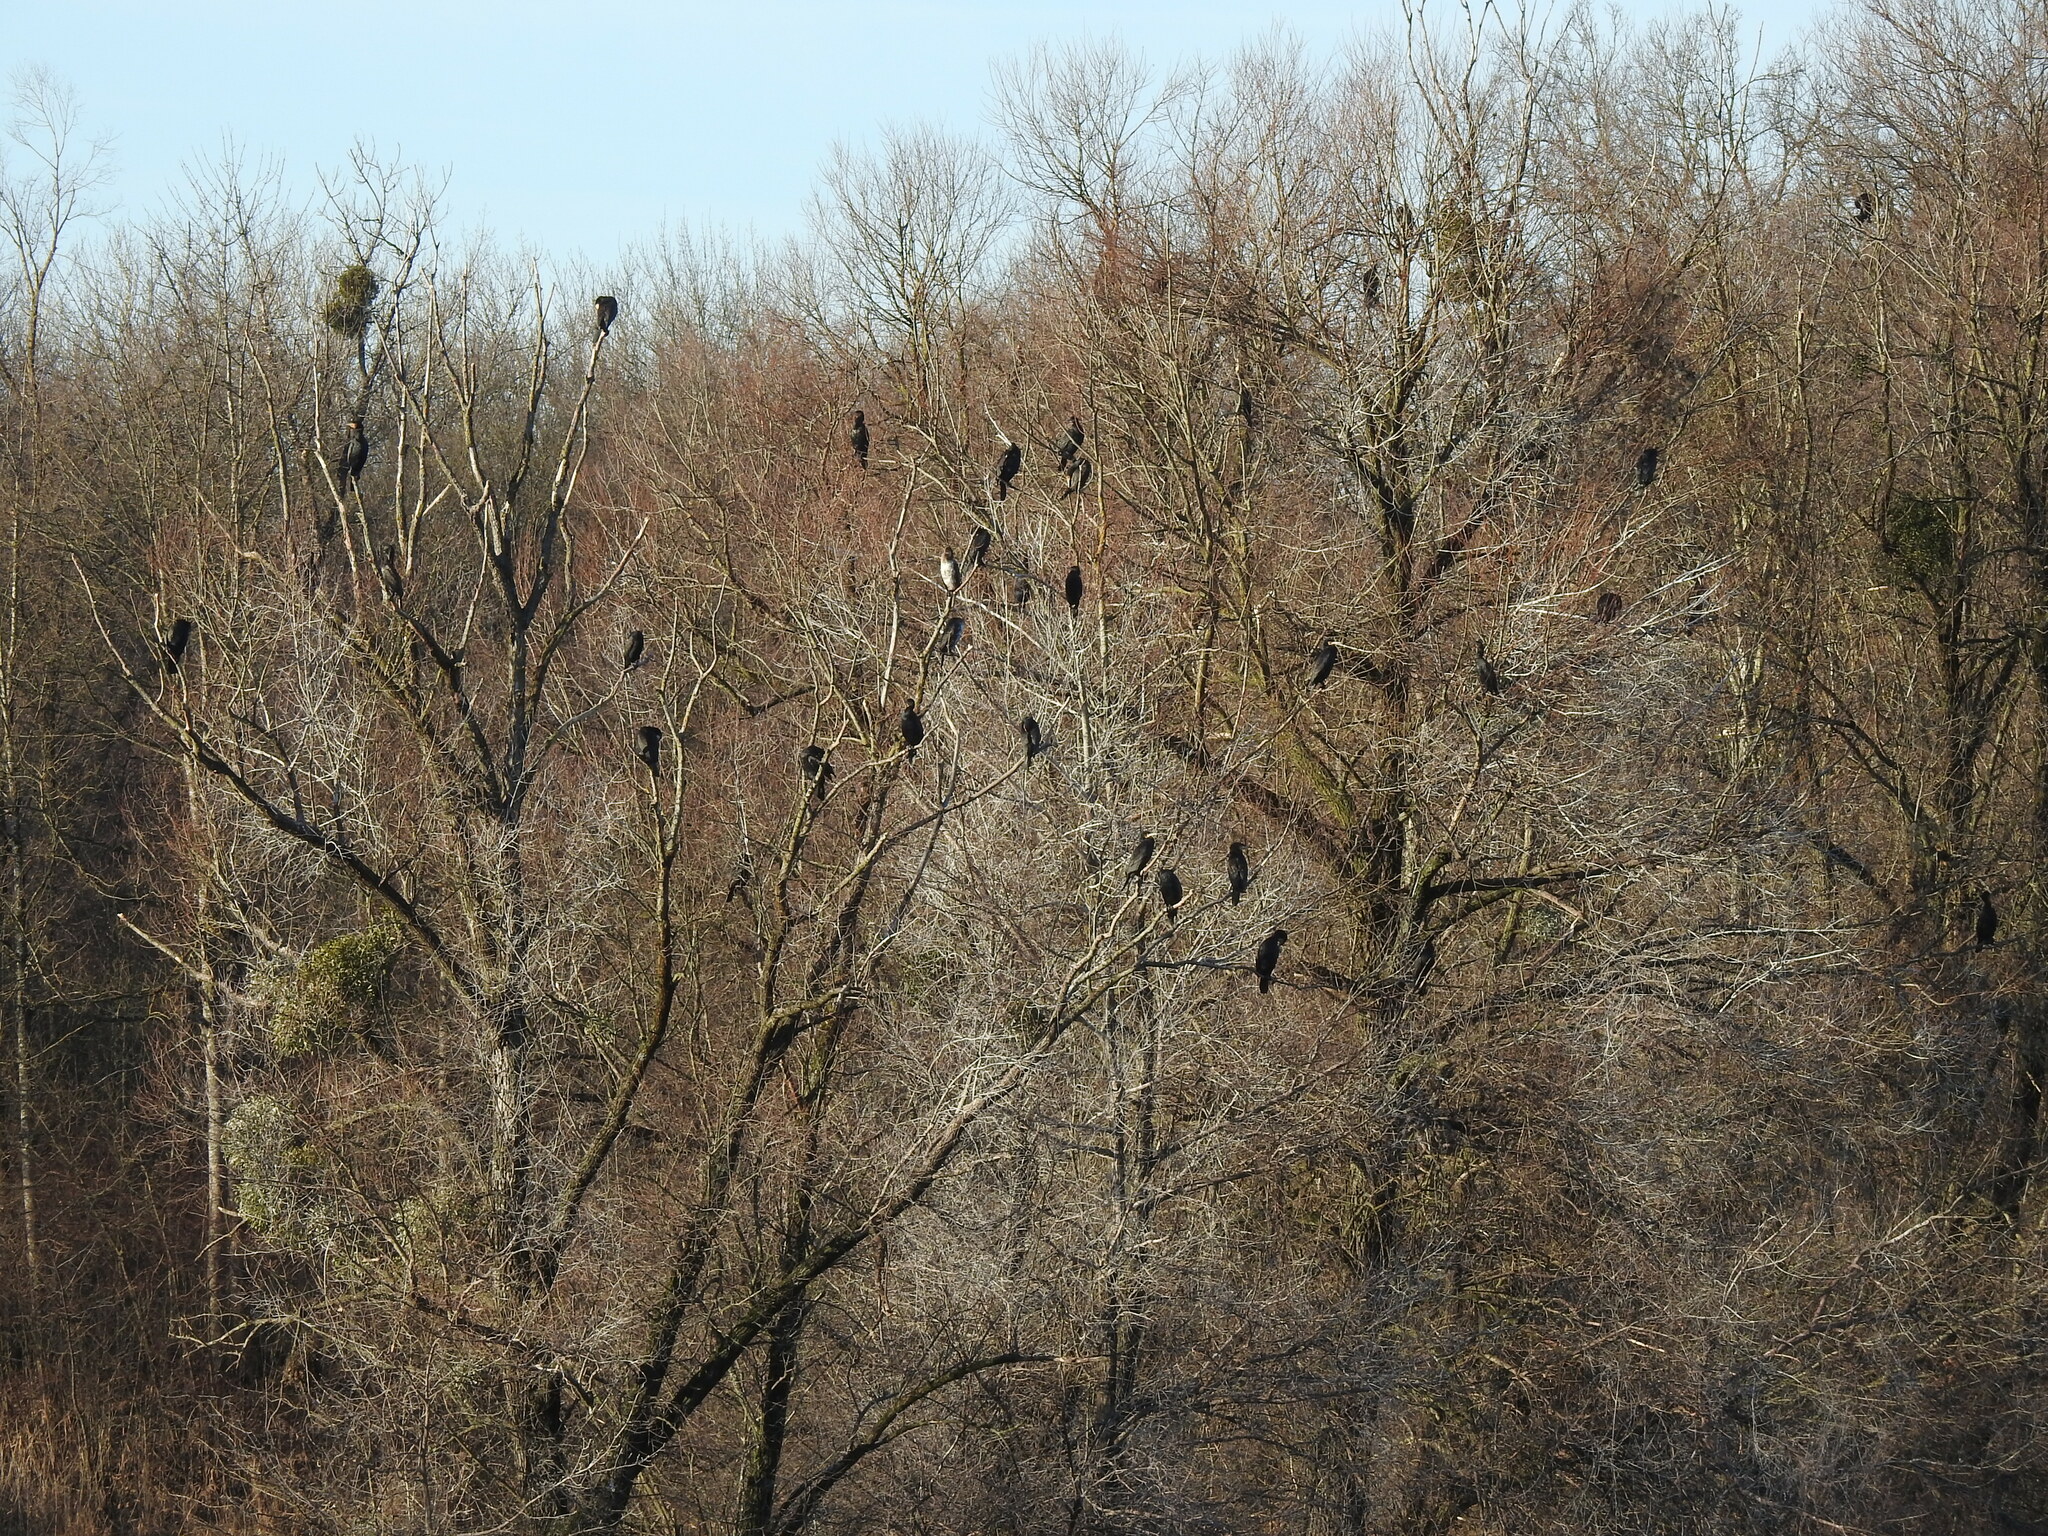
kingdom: Animalia
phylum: Chordata
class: Aves
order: Suliformes
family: Phalacrocoracidae
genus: Phalacrocorax
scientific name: Phalacrocorax carbo
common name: Great cormorant
